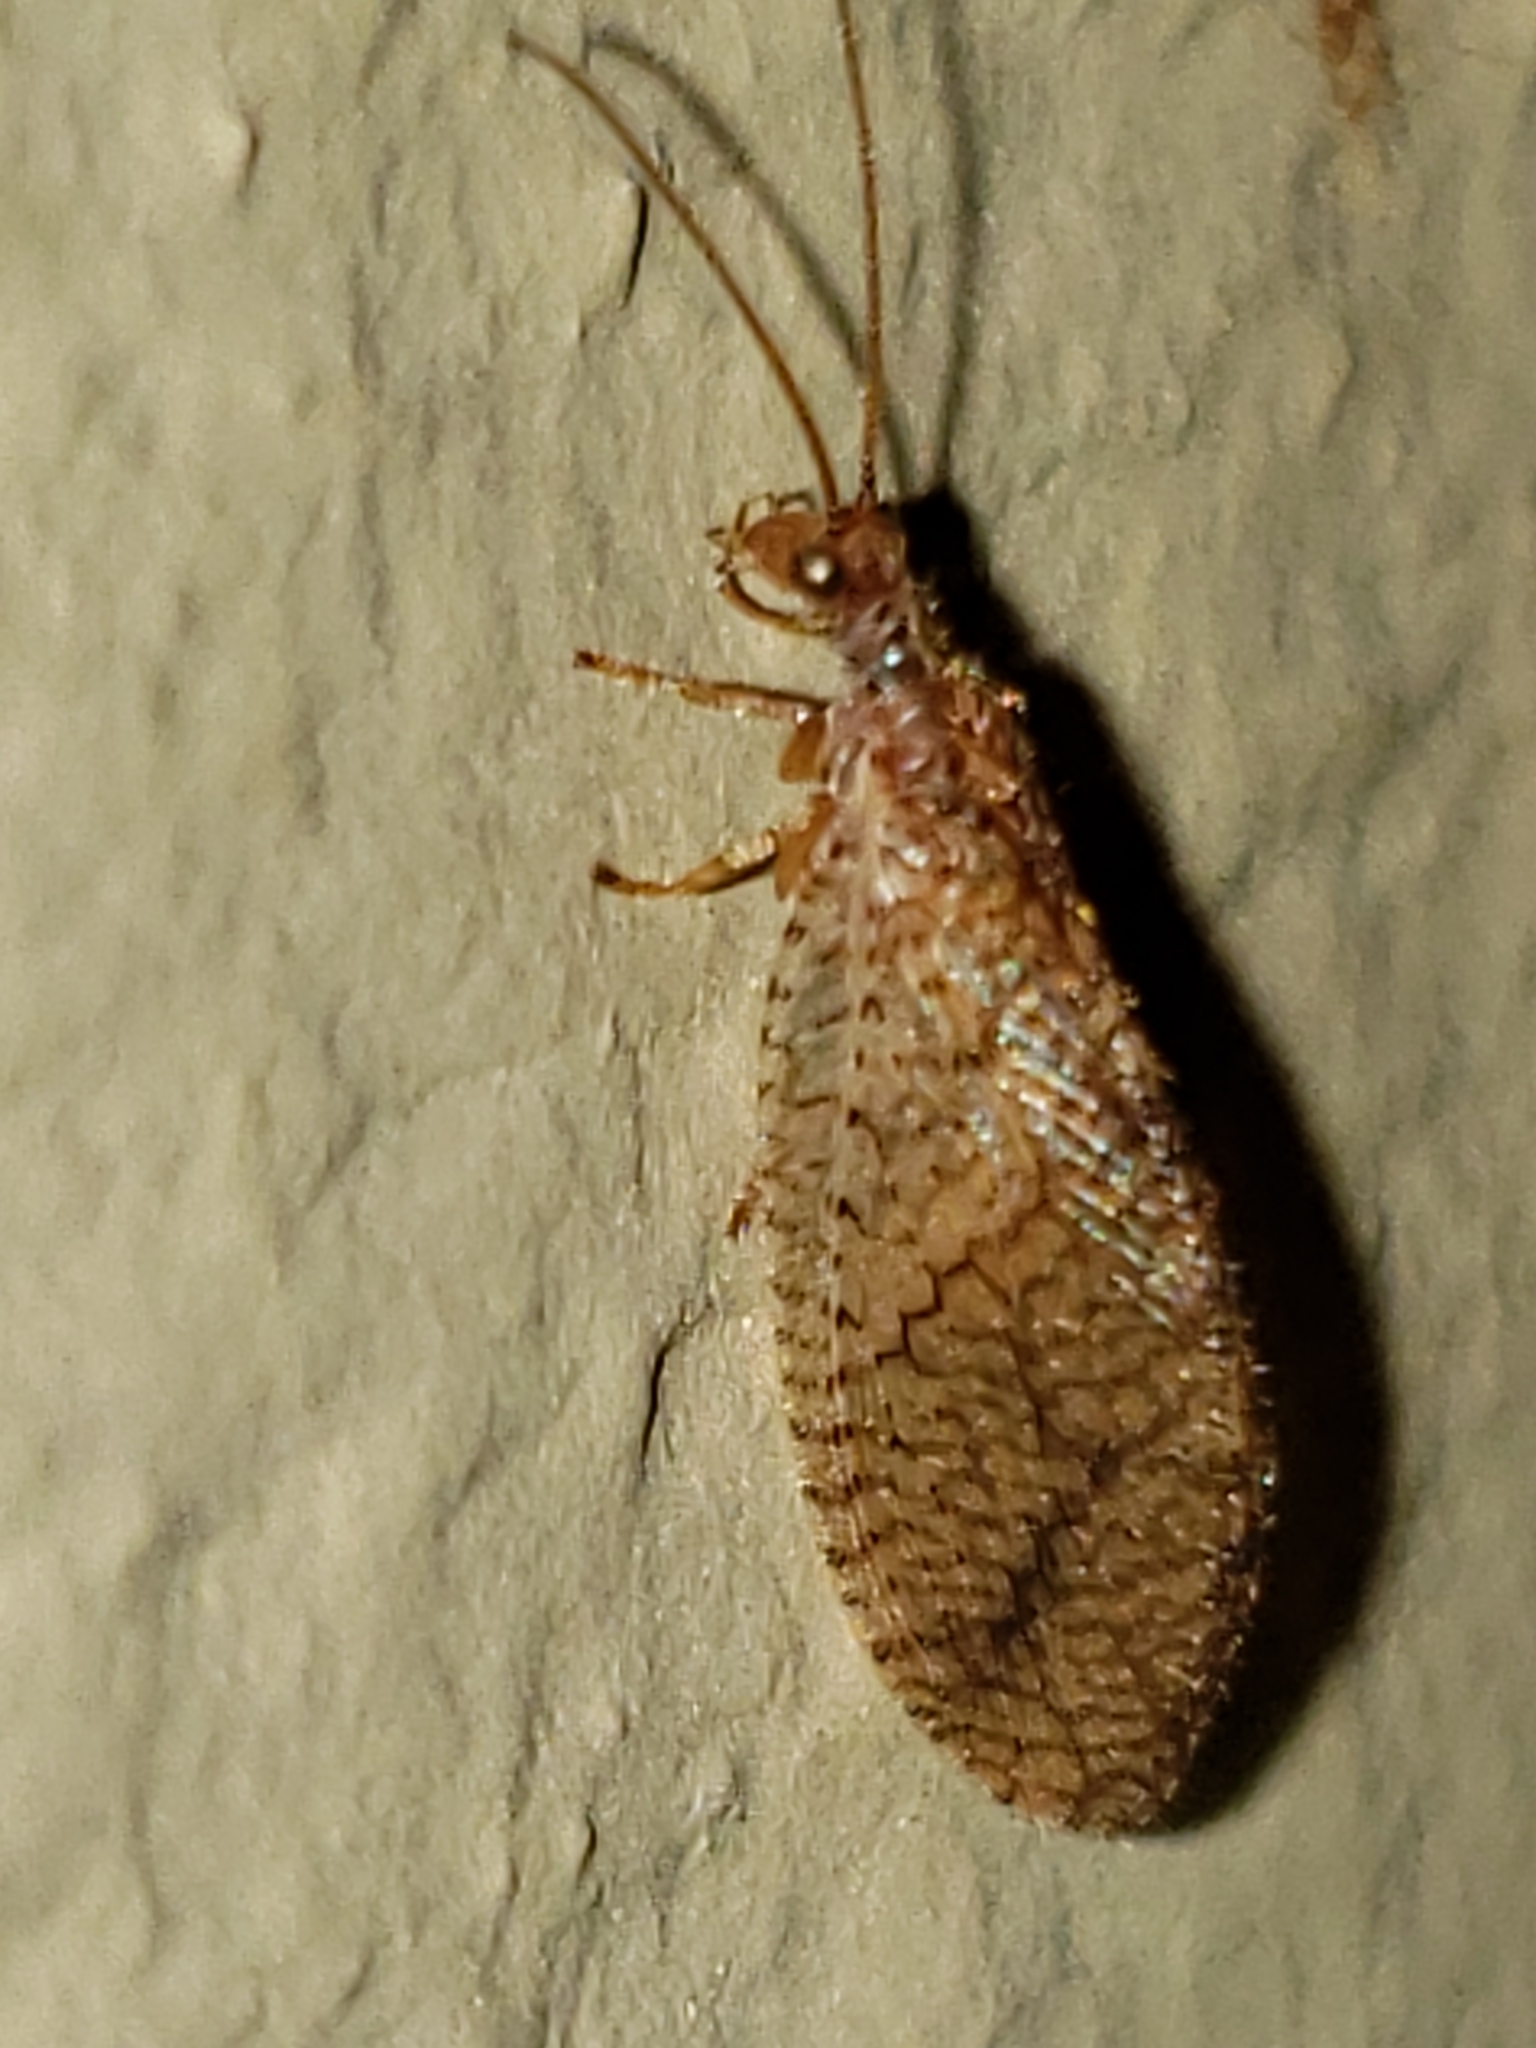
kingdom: Animalia
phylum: Arthropoda
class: Insecta
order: Neuroptera
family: Hemerobiidae
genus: Micromus
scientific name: Micromus posticus
